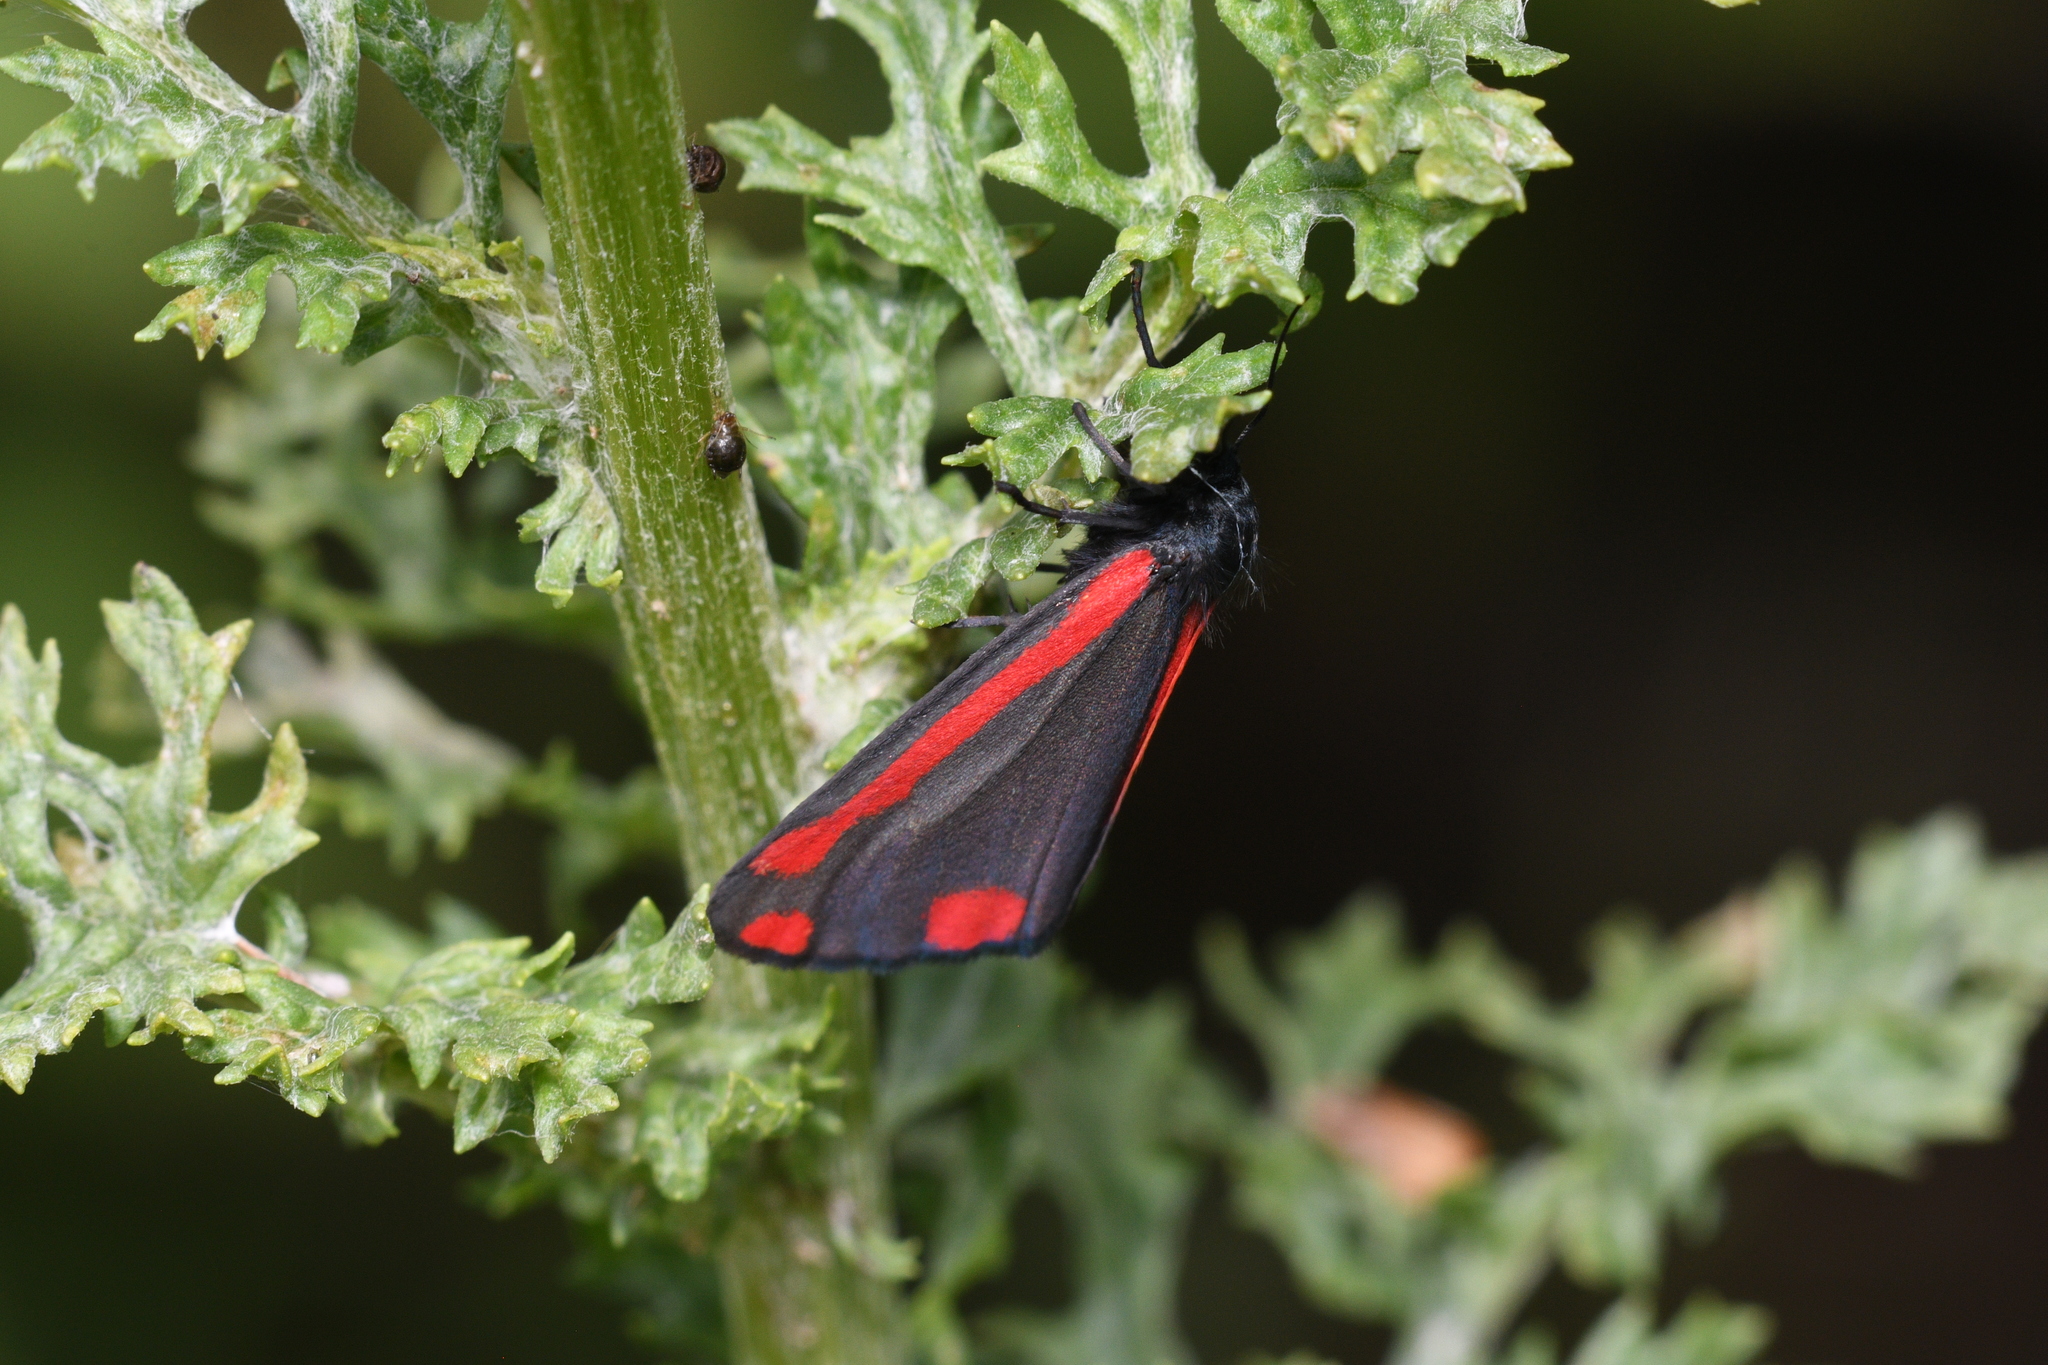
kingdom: Animalia
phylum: Arthropoda
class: Insecta
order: Lepidoptera
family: Erebidae
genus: Tyria
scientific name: Tyria jacobaeae
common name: Cinnabar
